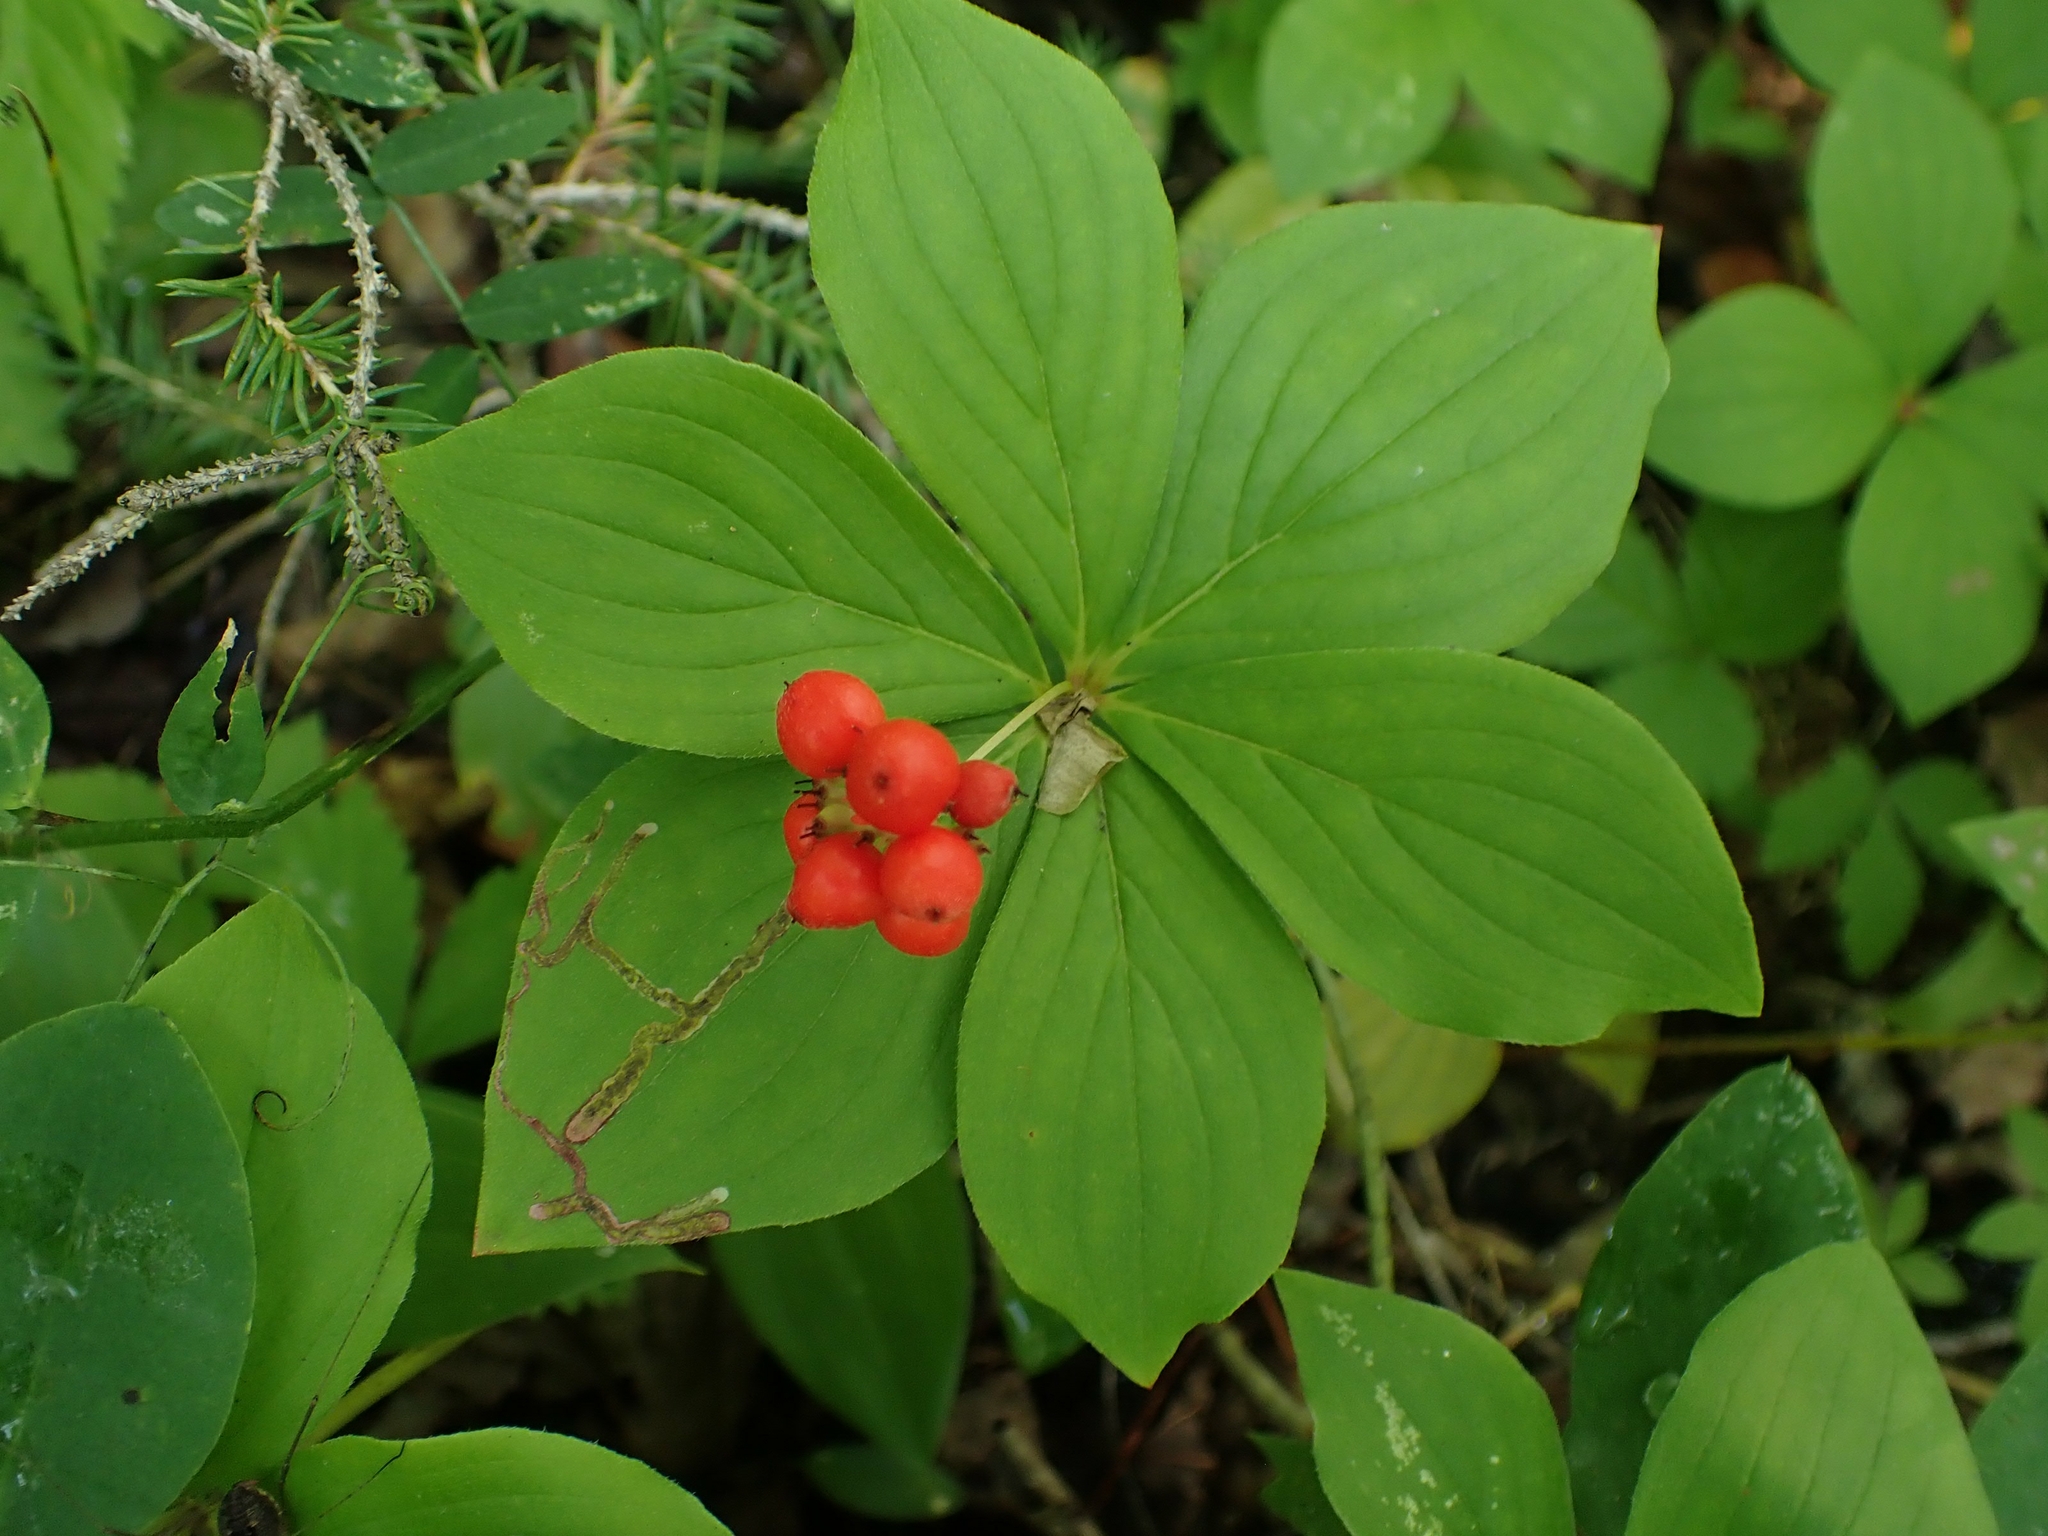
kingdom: Plantae
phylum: Tracheophyta
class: Magnoliopsida
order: Cornales
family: Cornaceae
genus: Cornus
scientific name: Cornus canadensis
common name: Creeping dogwood
